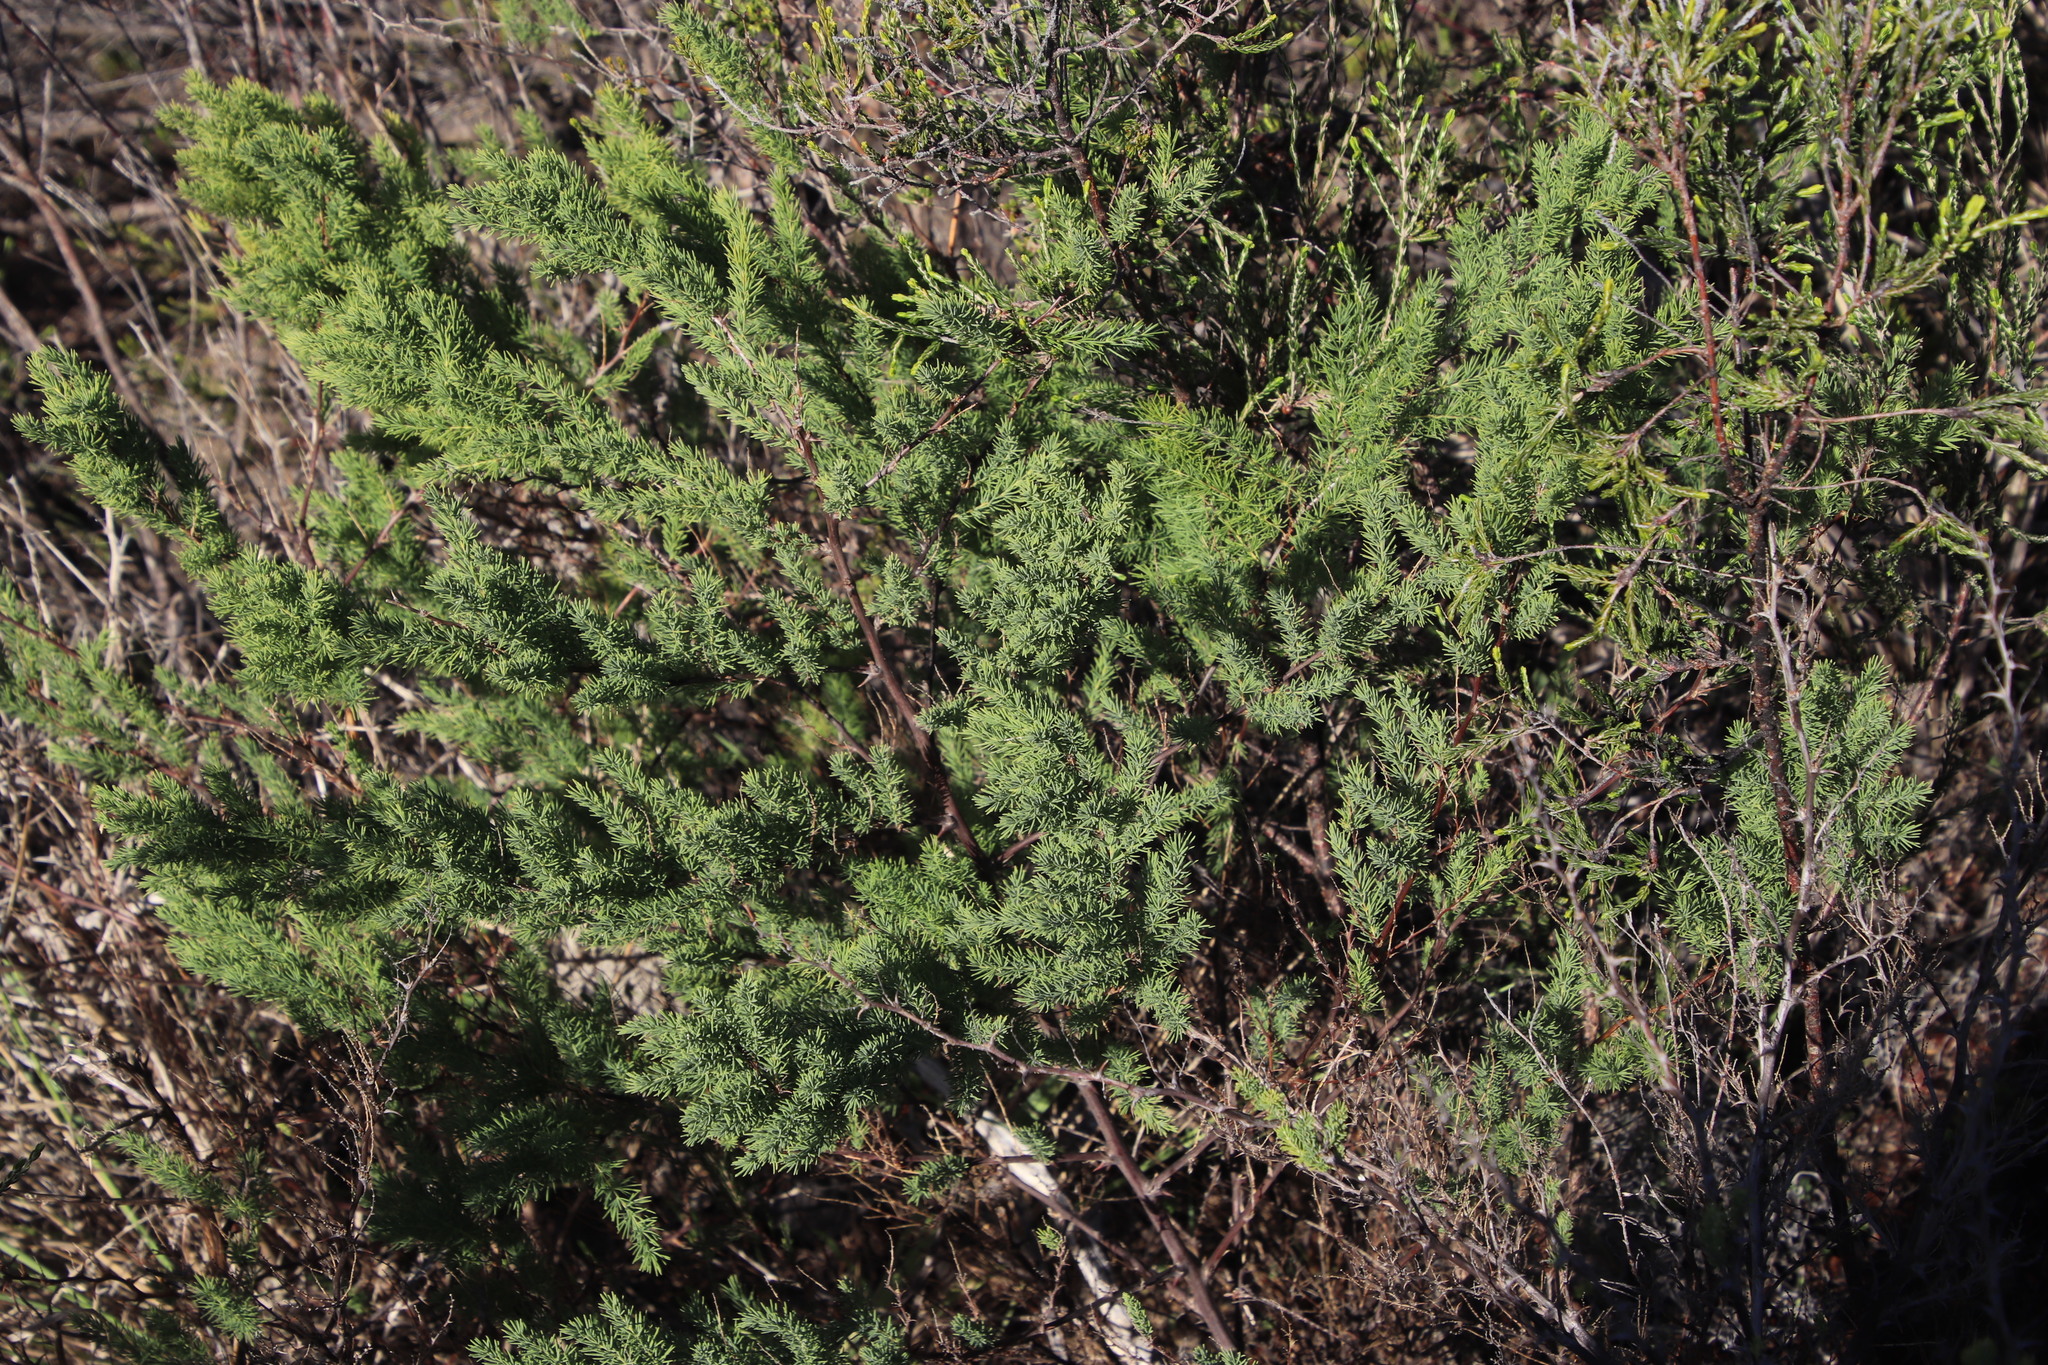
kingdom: Plantae
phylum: Tracheophyta
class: Liliopsida
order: Asparagales
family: Asparagaceae
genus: Asparagus
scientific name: Asparagus rubicundus
